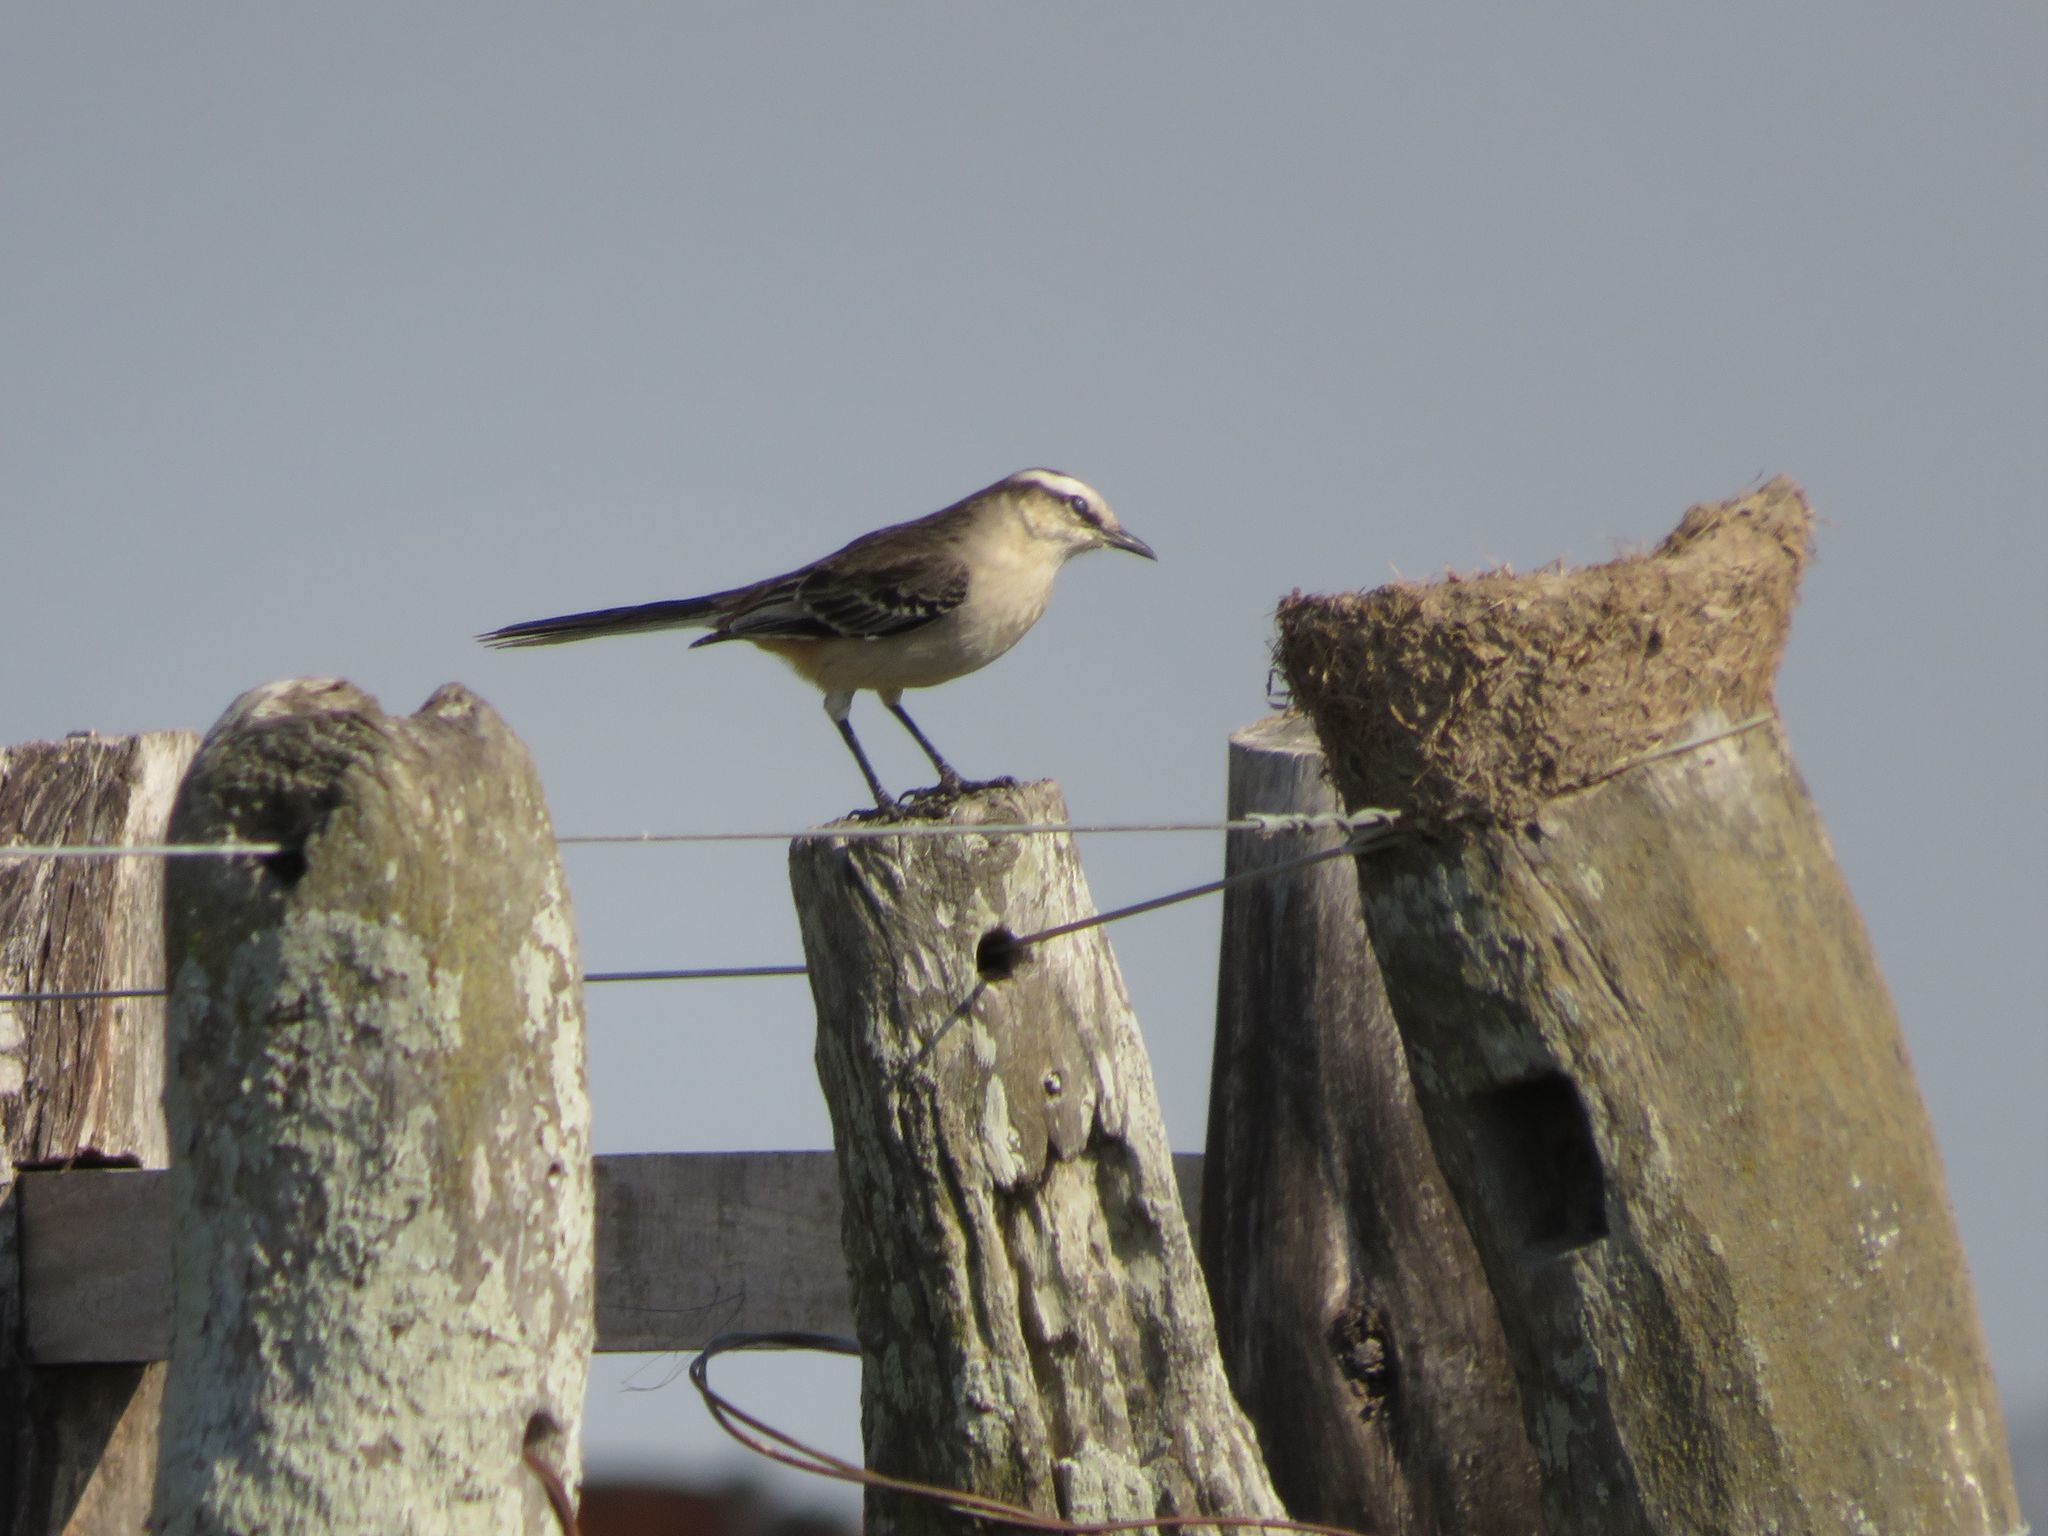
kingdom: Animalia
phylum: Chordata
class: Aves
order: Passeriformes
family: Mimidae
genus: Mimus
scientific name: Mimus saturninus
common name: Chalk-browed mockingbird
